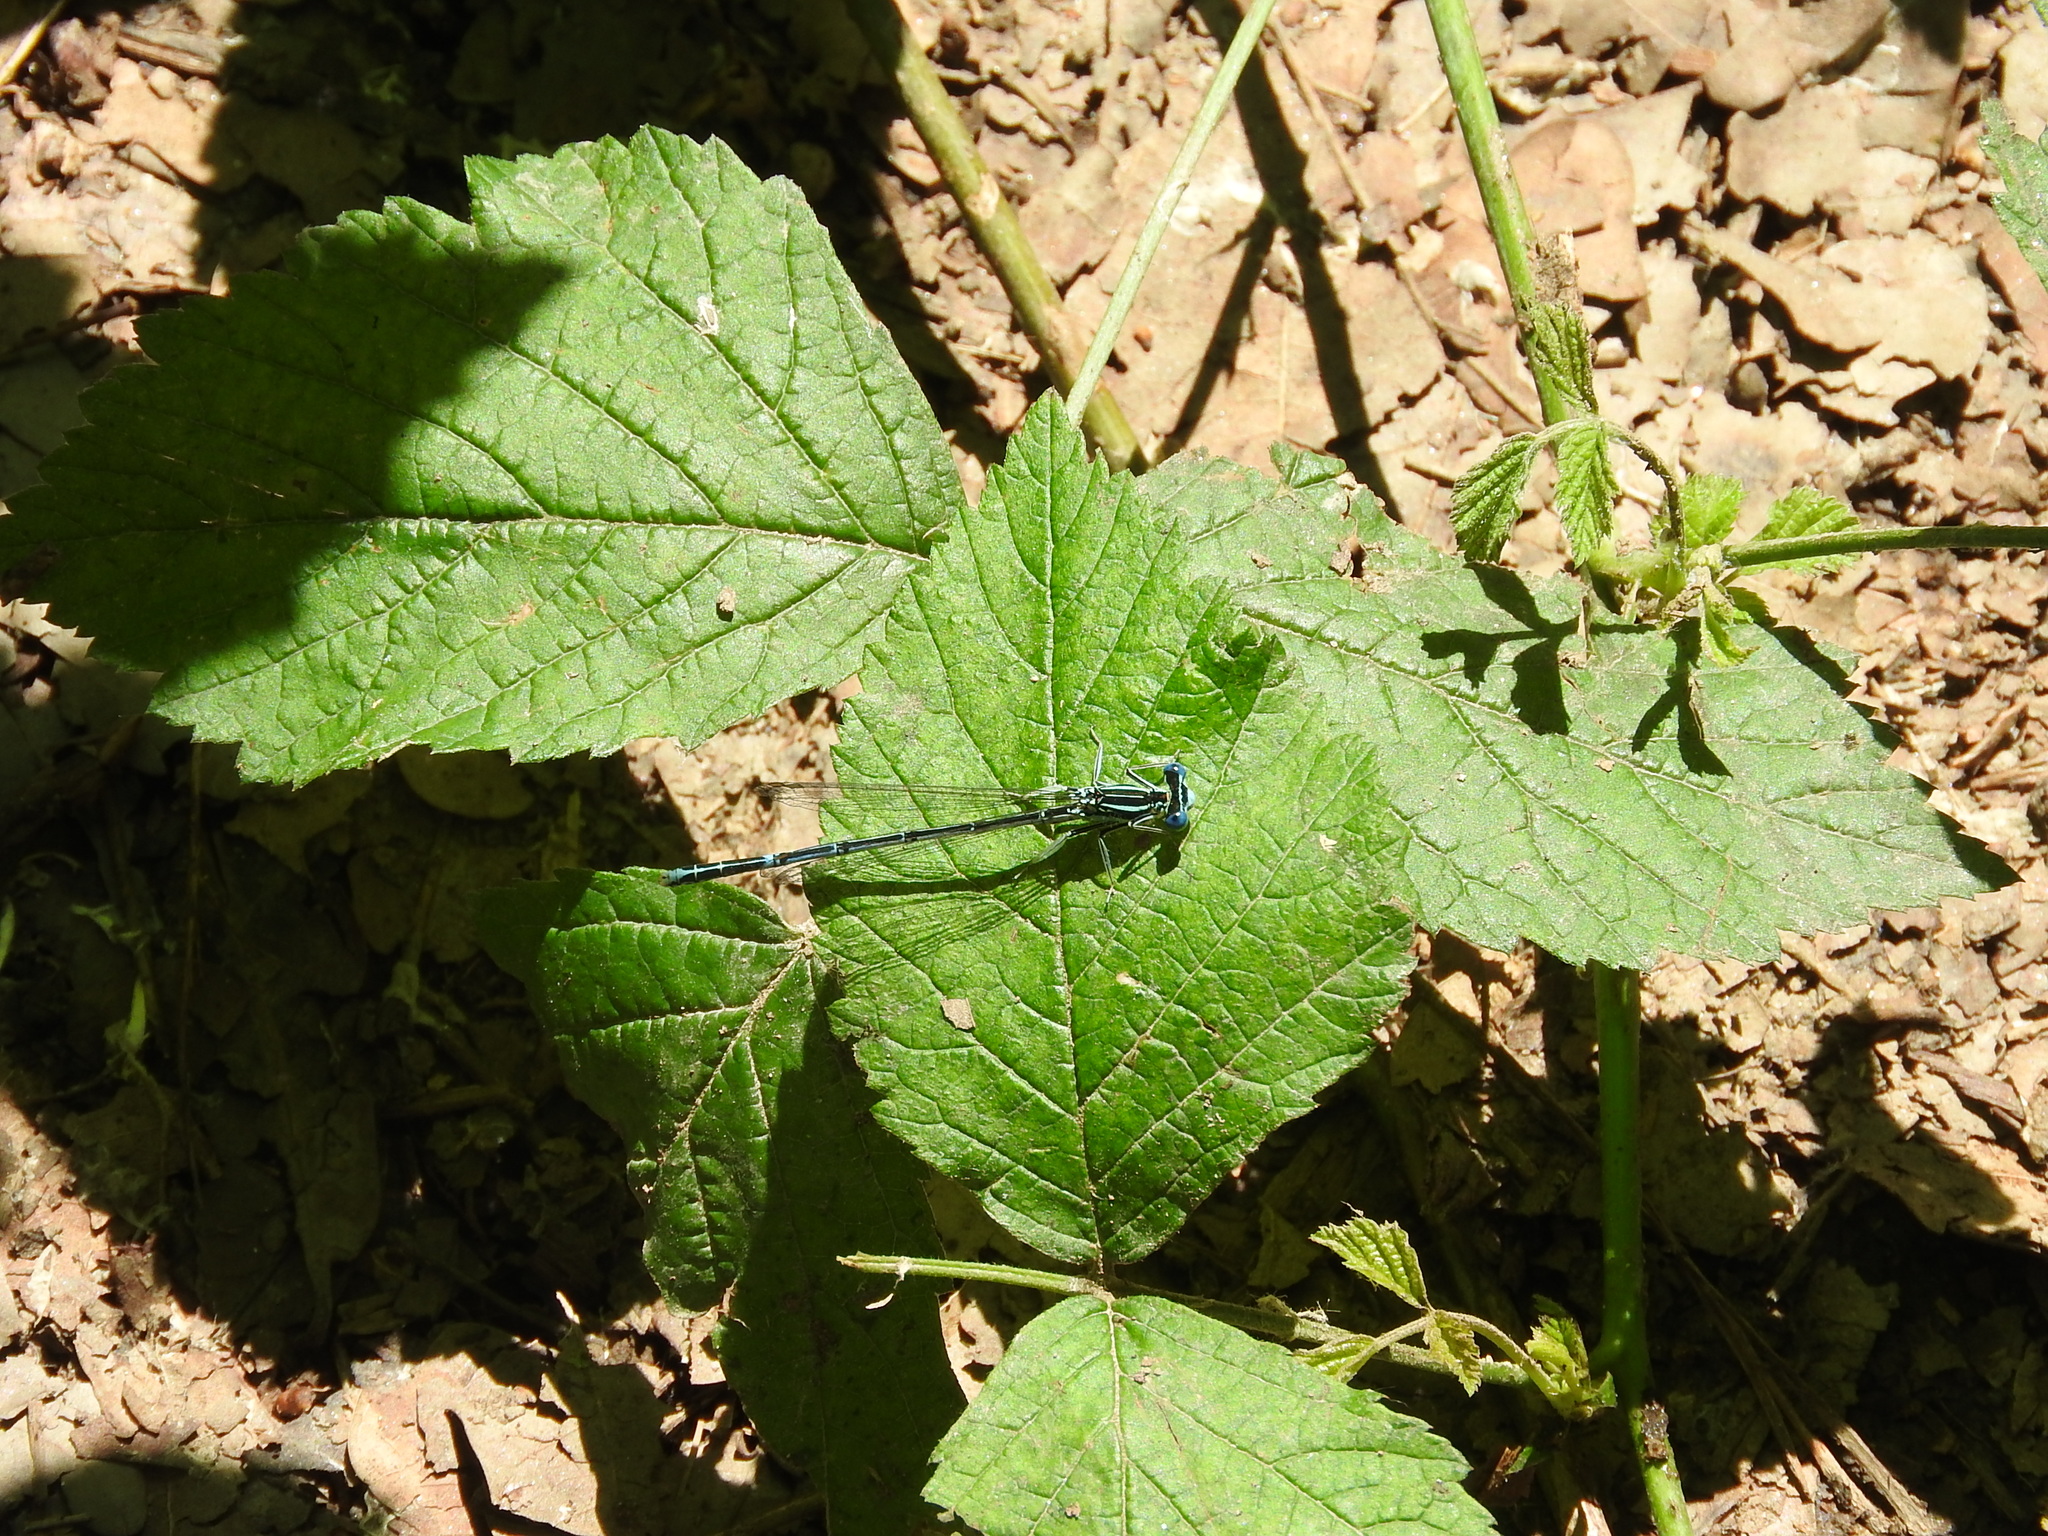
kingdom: Animalia
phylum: Arthropoda
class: Insecta
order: Odonata
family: Platycnemididae
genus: Platycnemis
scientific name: Platycnemis pennipes
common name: White-legged damselfly
